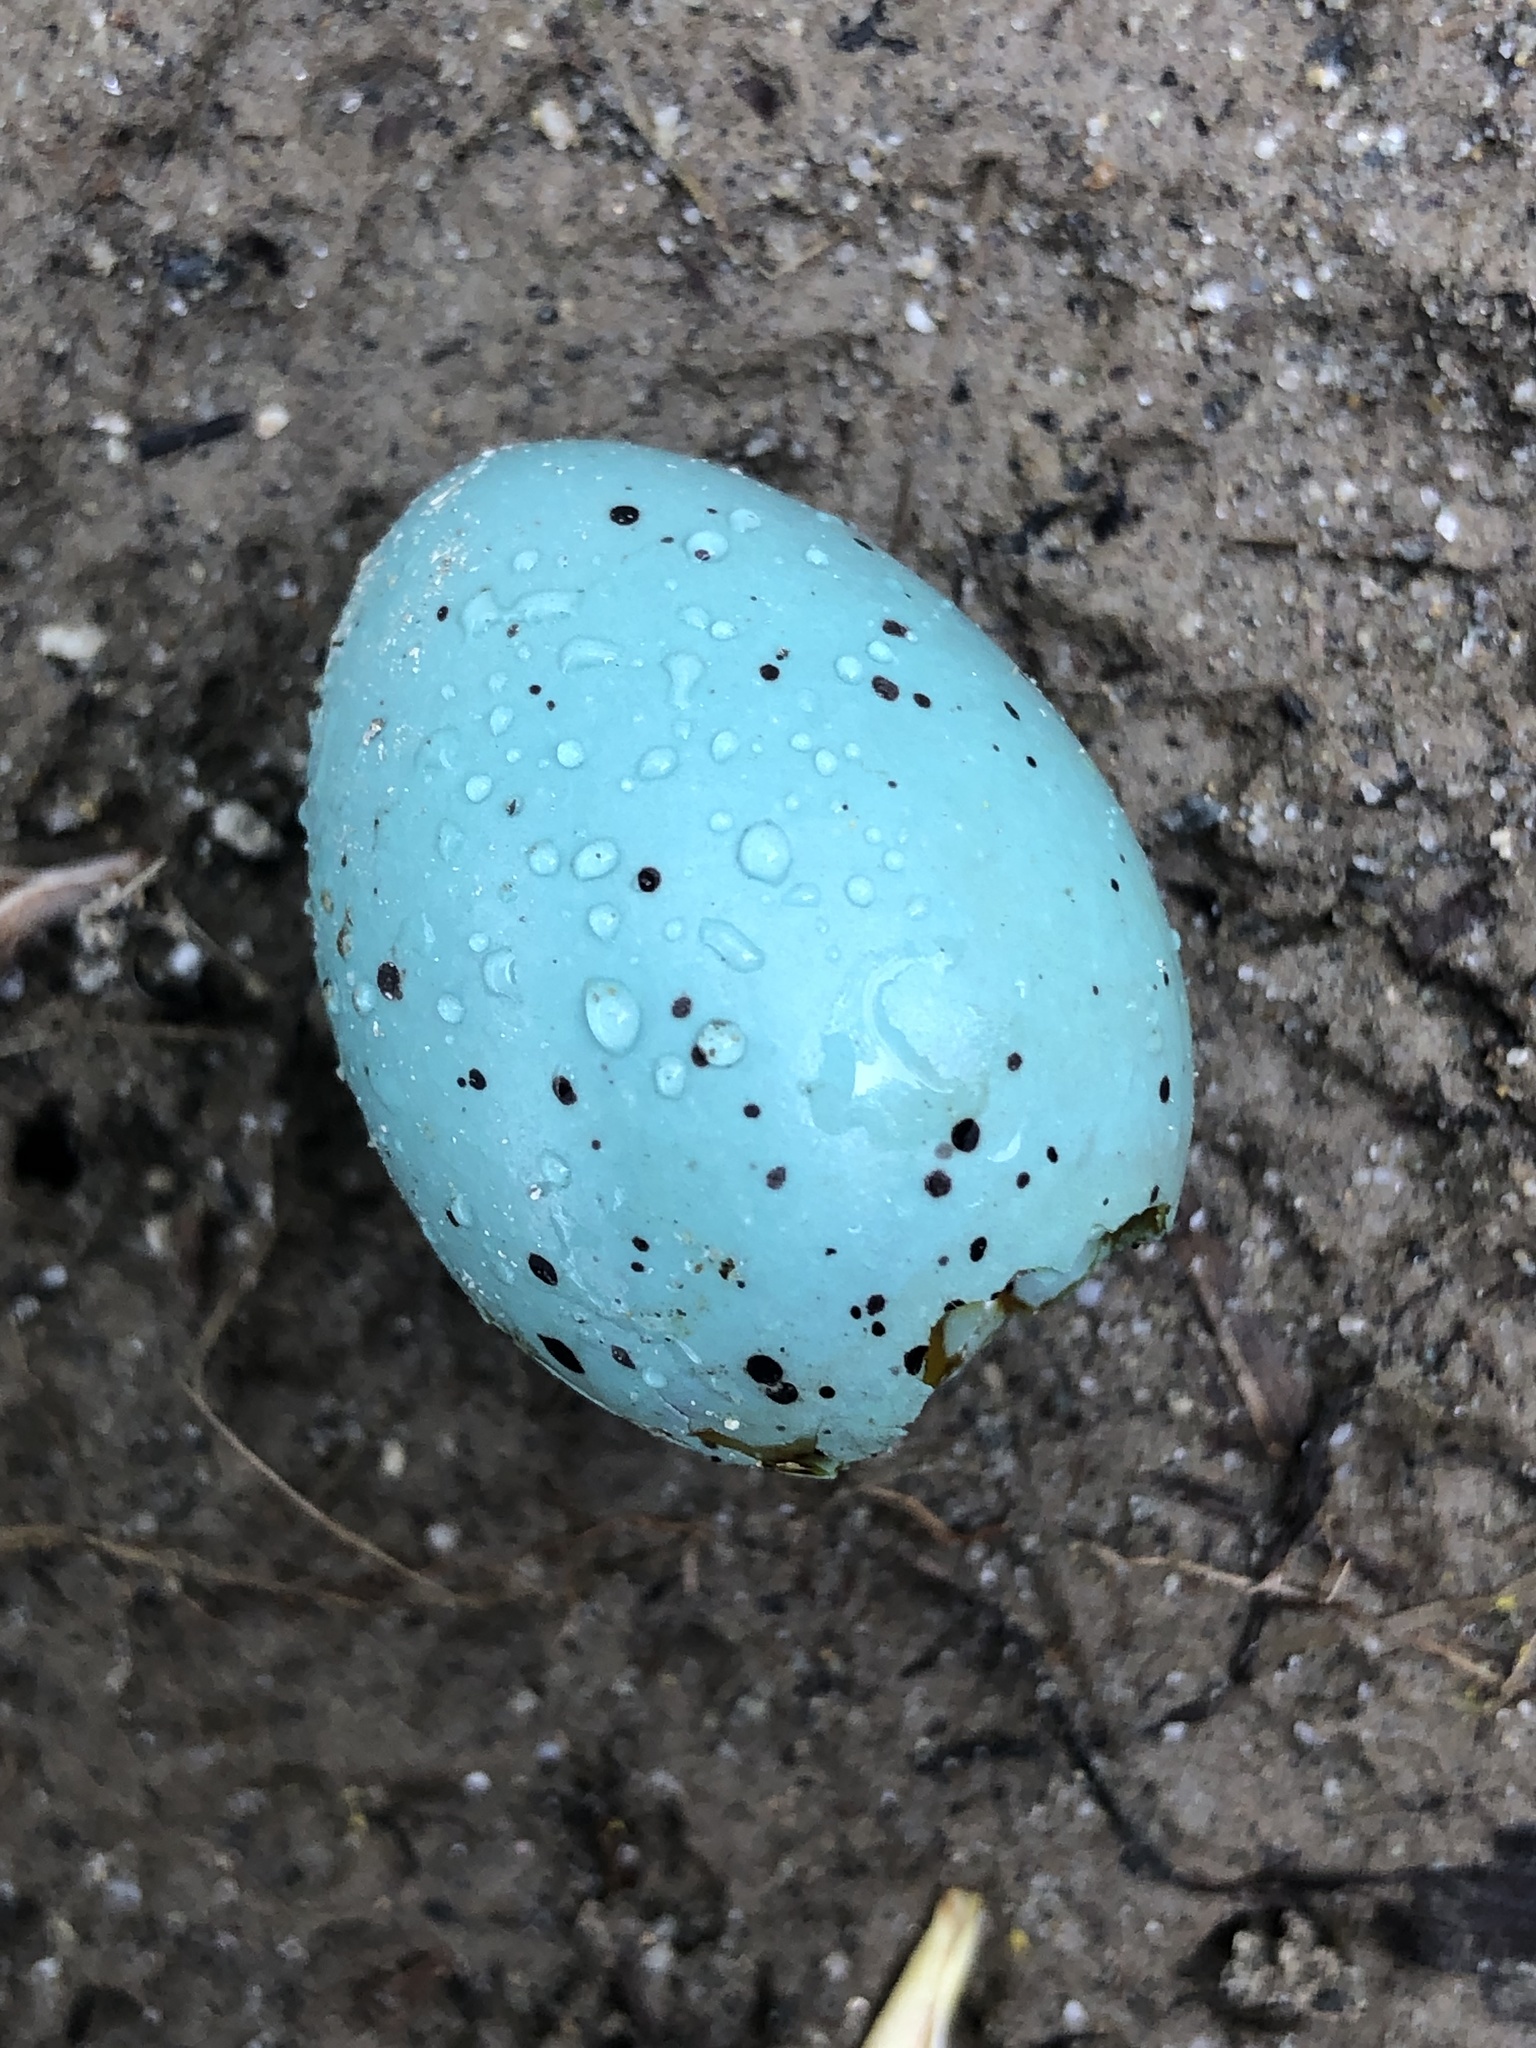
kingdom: Animalia
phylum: Chordata
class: Aves
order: Passeriformes
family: Turdidae
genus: Turdus
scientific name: Turdus philomelos
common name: Song thrush
